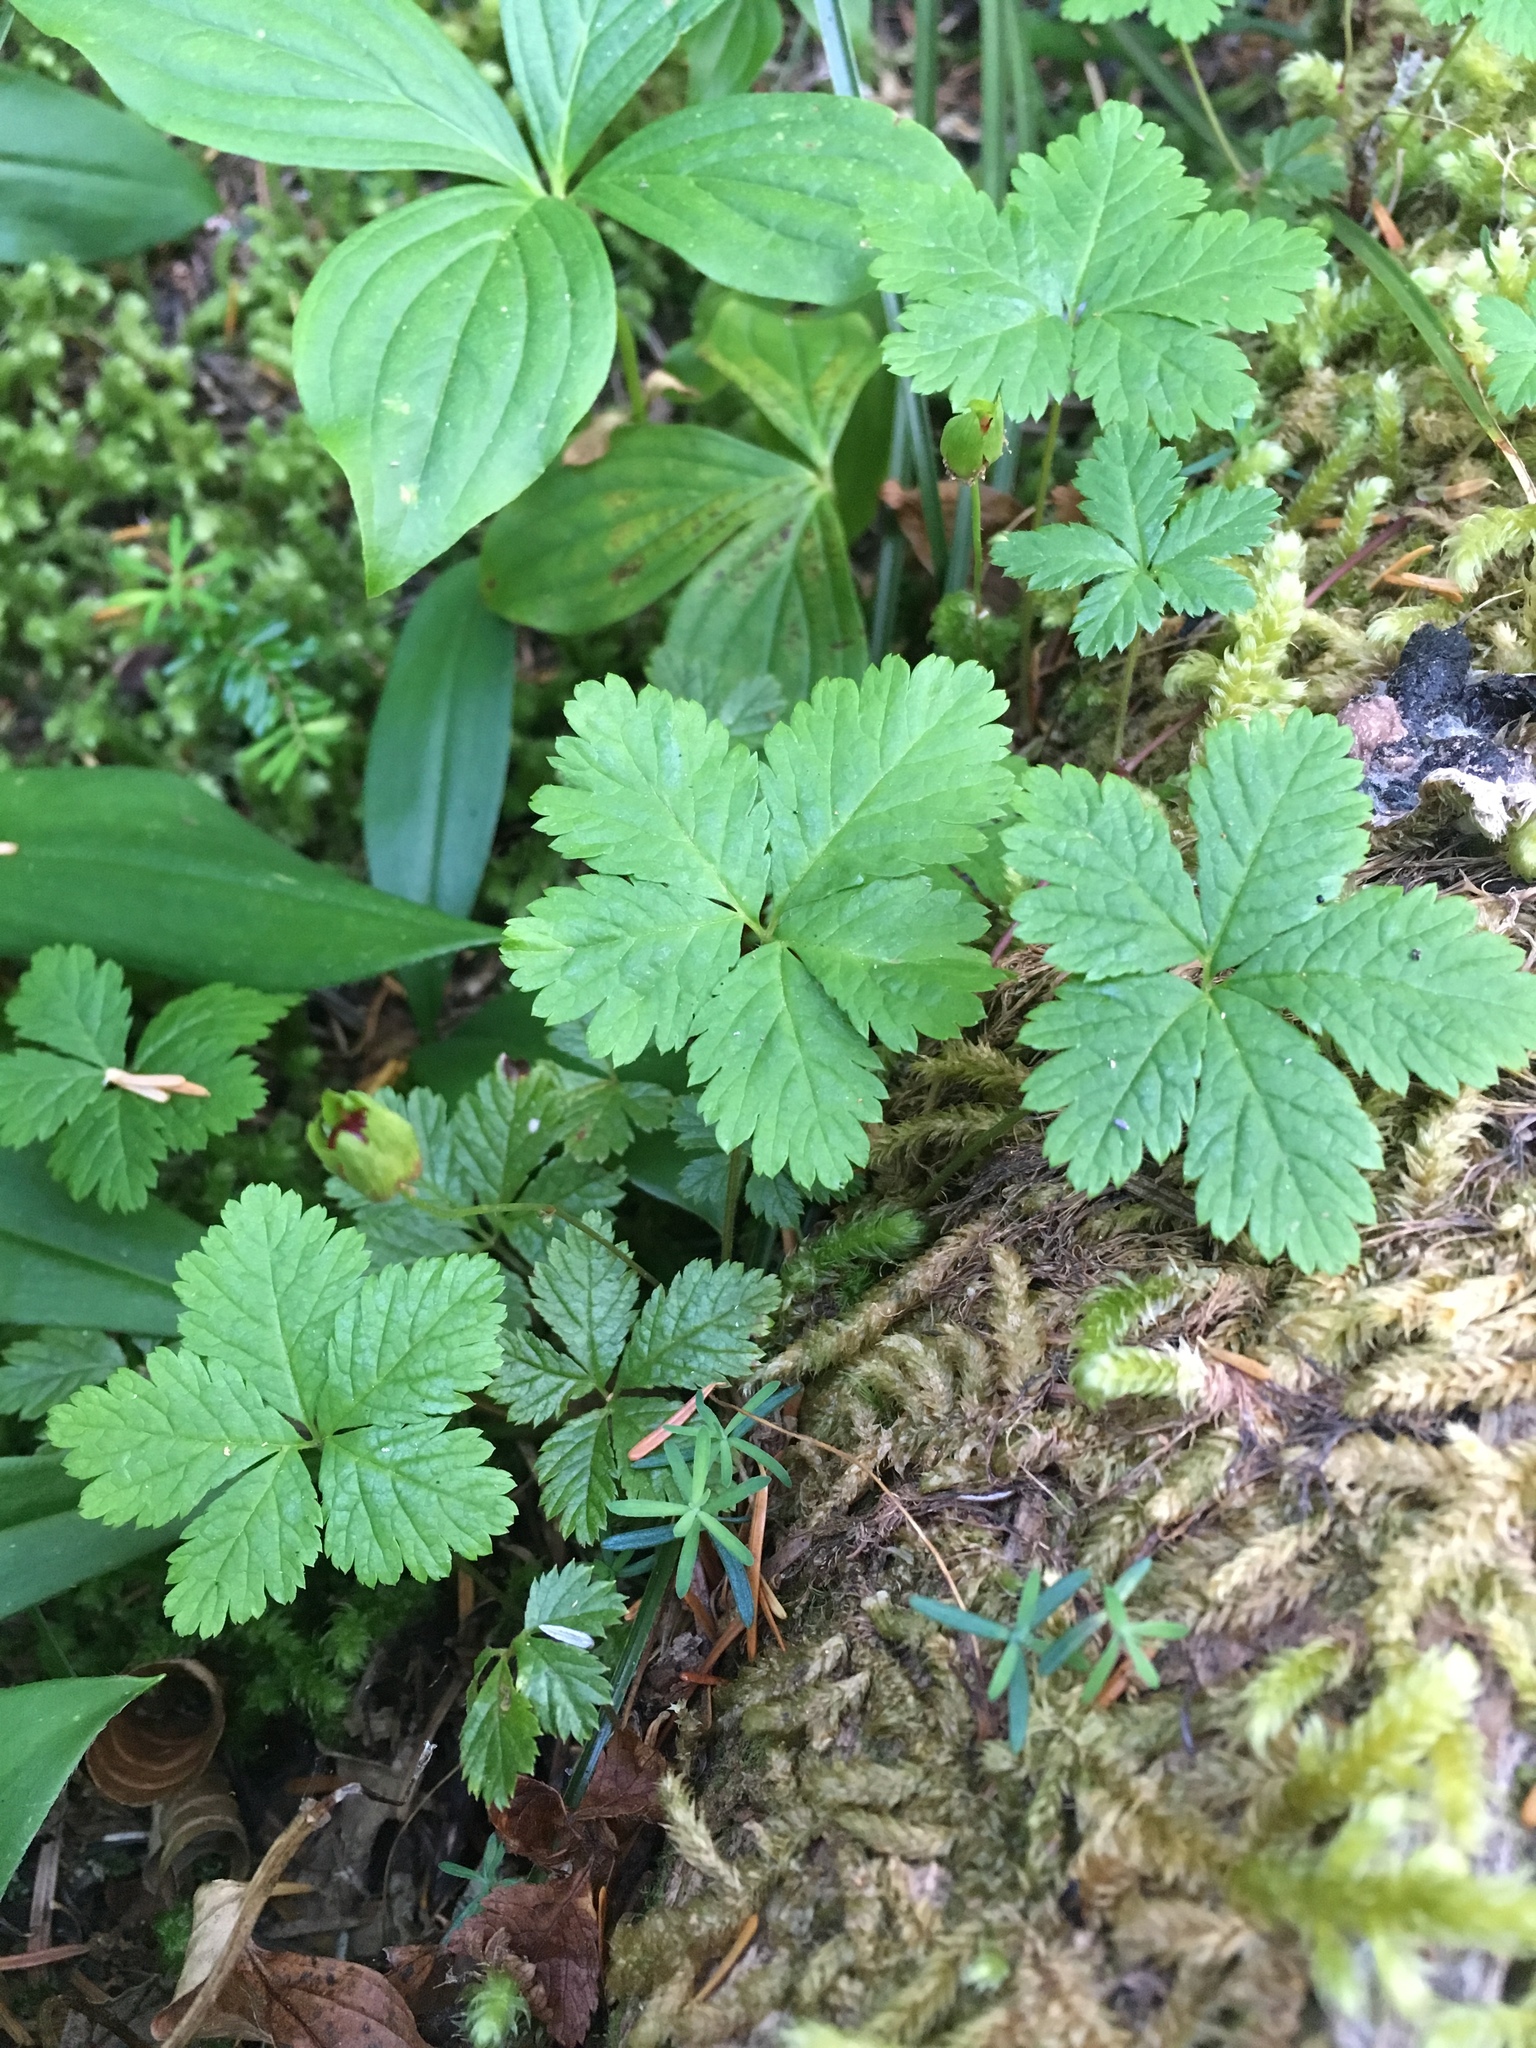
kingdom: Plantae
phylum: Tracheophyta
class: Magnoliopsida
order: Rosales
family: Rosaceae
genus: Rubus
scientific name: Rubus pedatus
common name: Creeping raspberry
